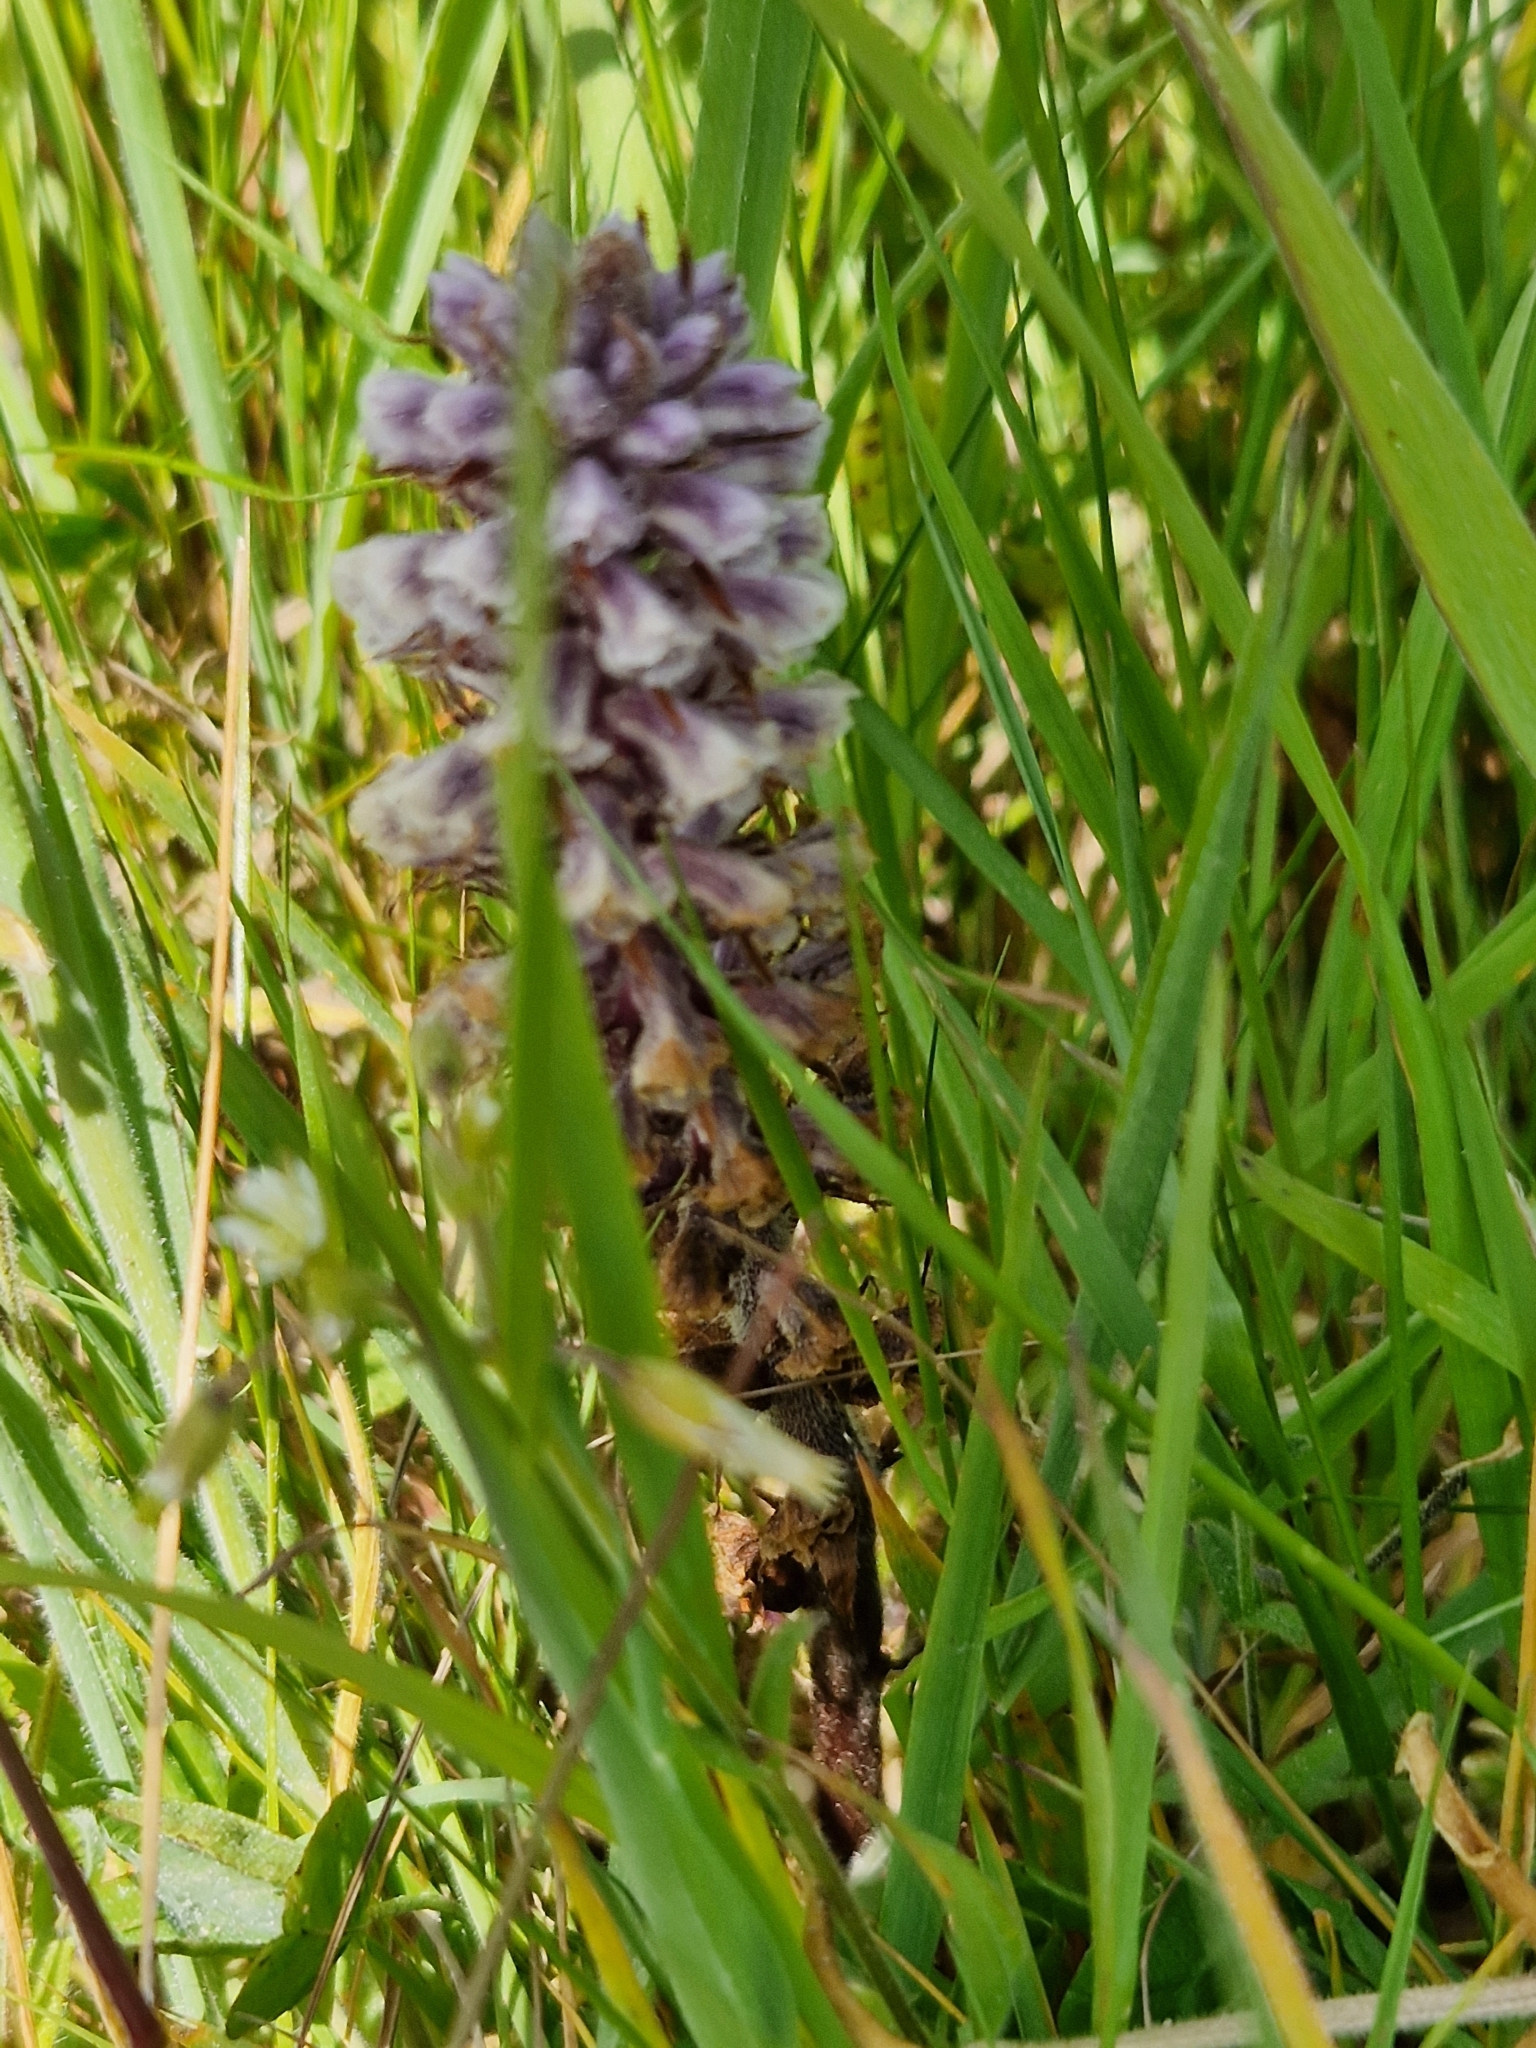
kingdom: Plantae
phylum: Tracheophyta
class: Magnoliopsida
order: Lamiales
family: Orobanchaceae
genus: Orobanche
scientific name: Orobanche minor
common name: Common broomrape
